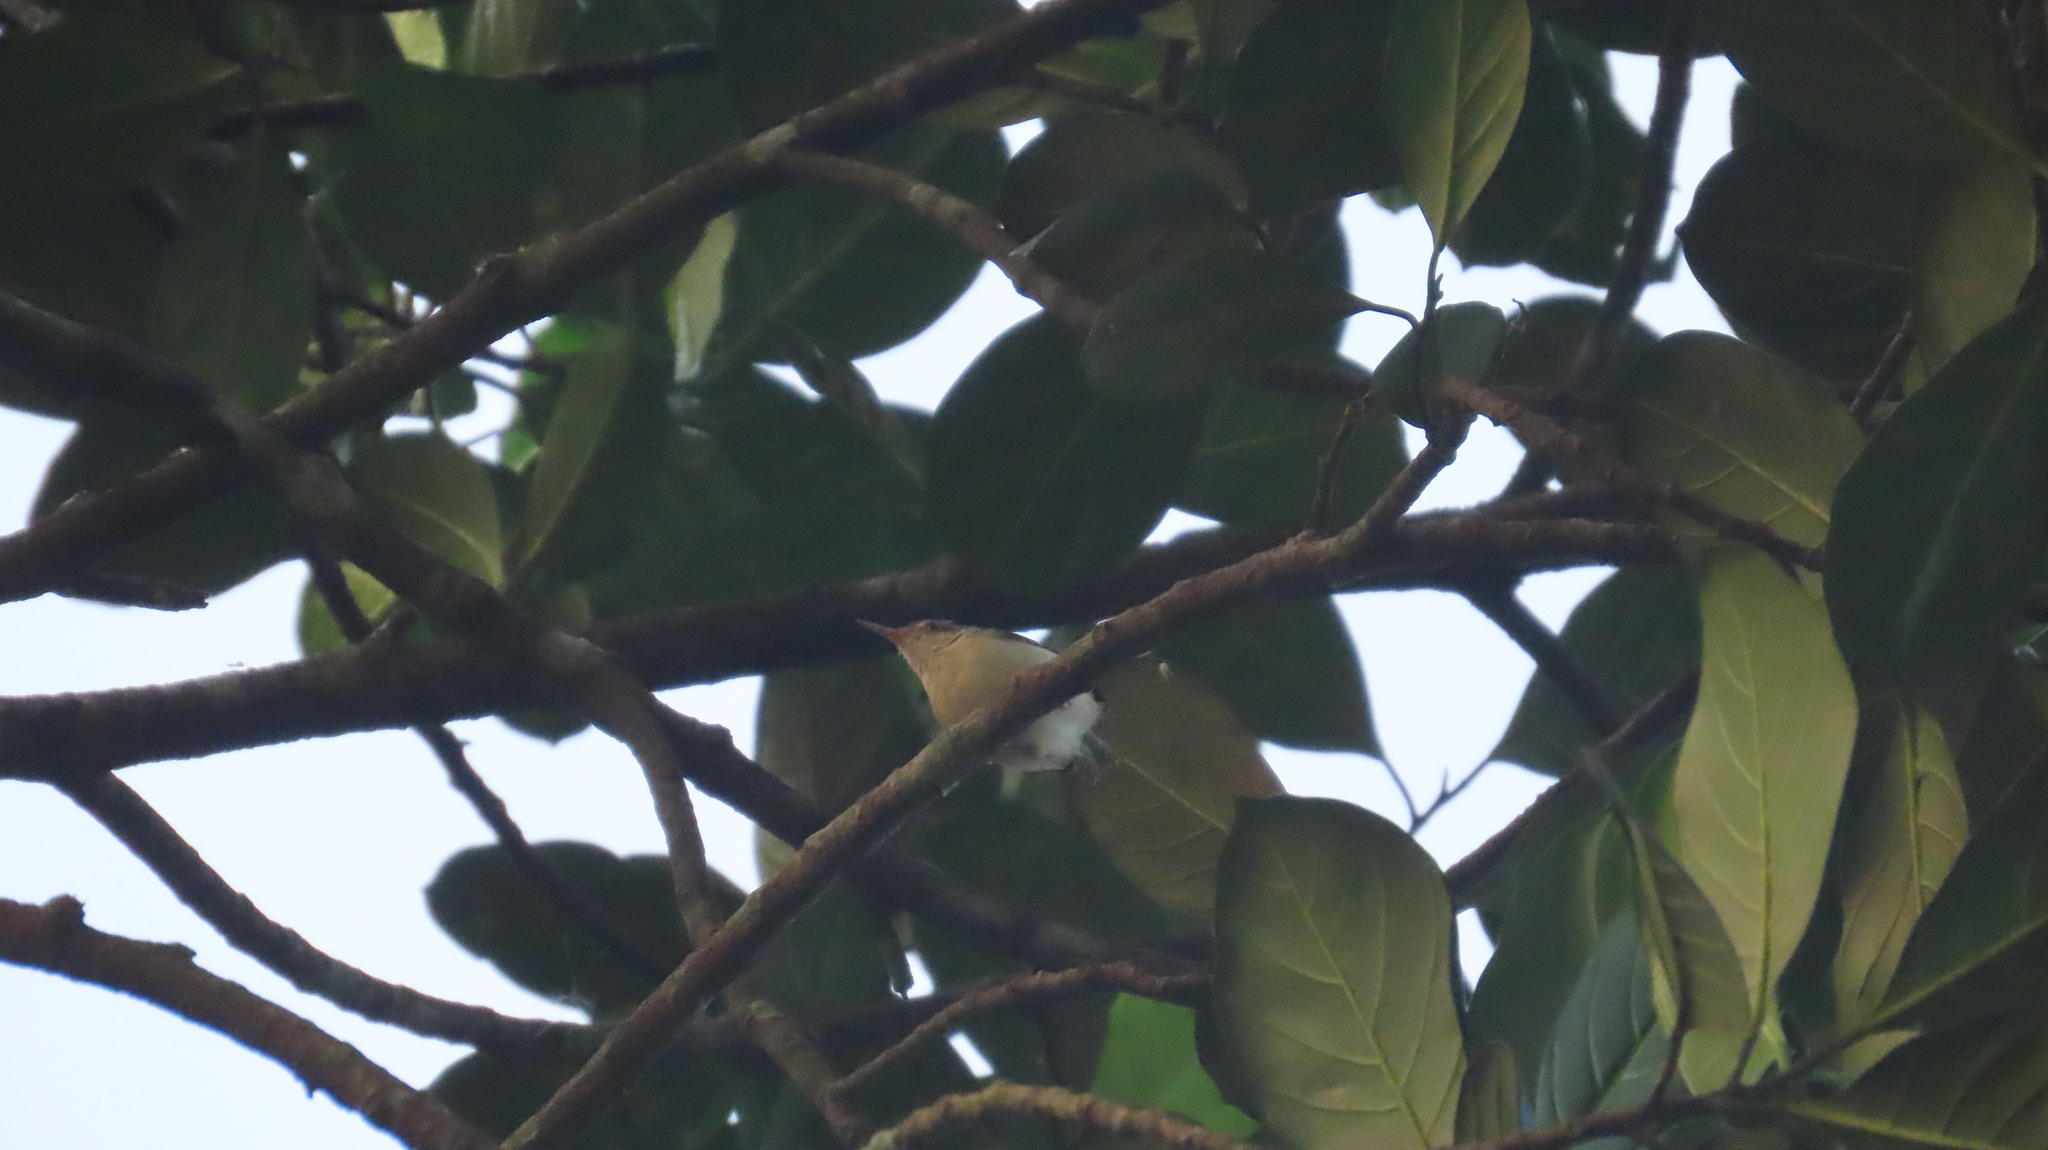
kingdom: Animalia
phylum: Chordata
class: Aves
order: Passeriformes
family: Cisticolidae
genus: Orthotomus
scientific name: Orthotomus sutorius
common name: Common tailorbird
